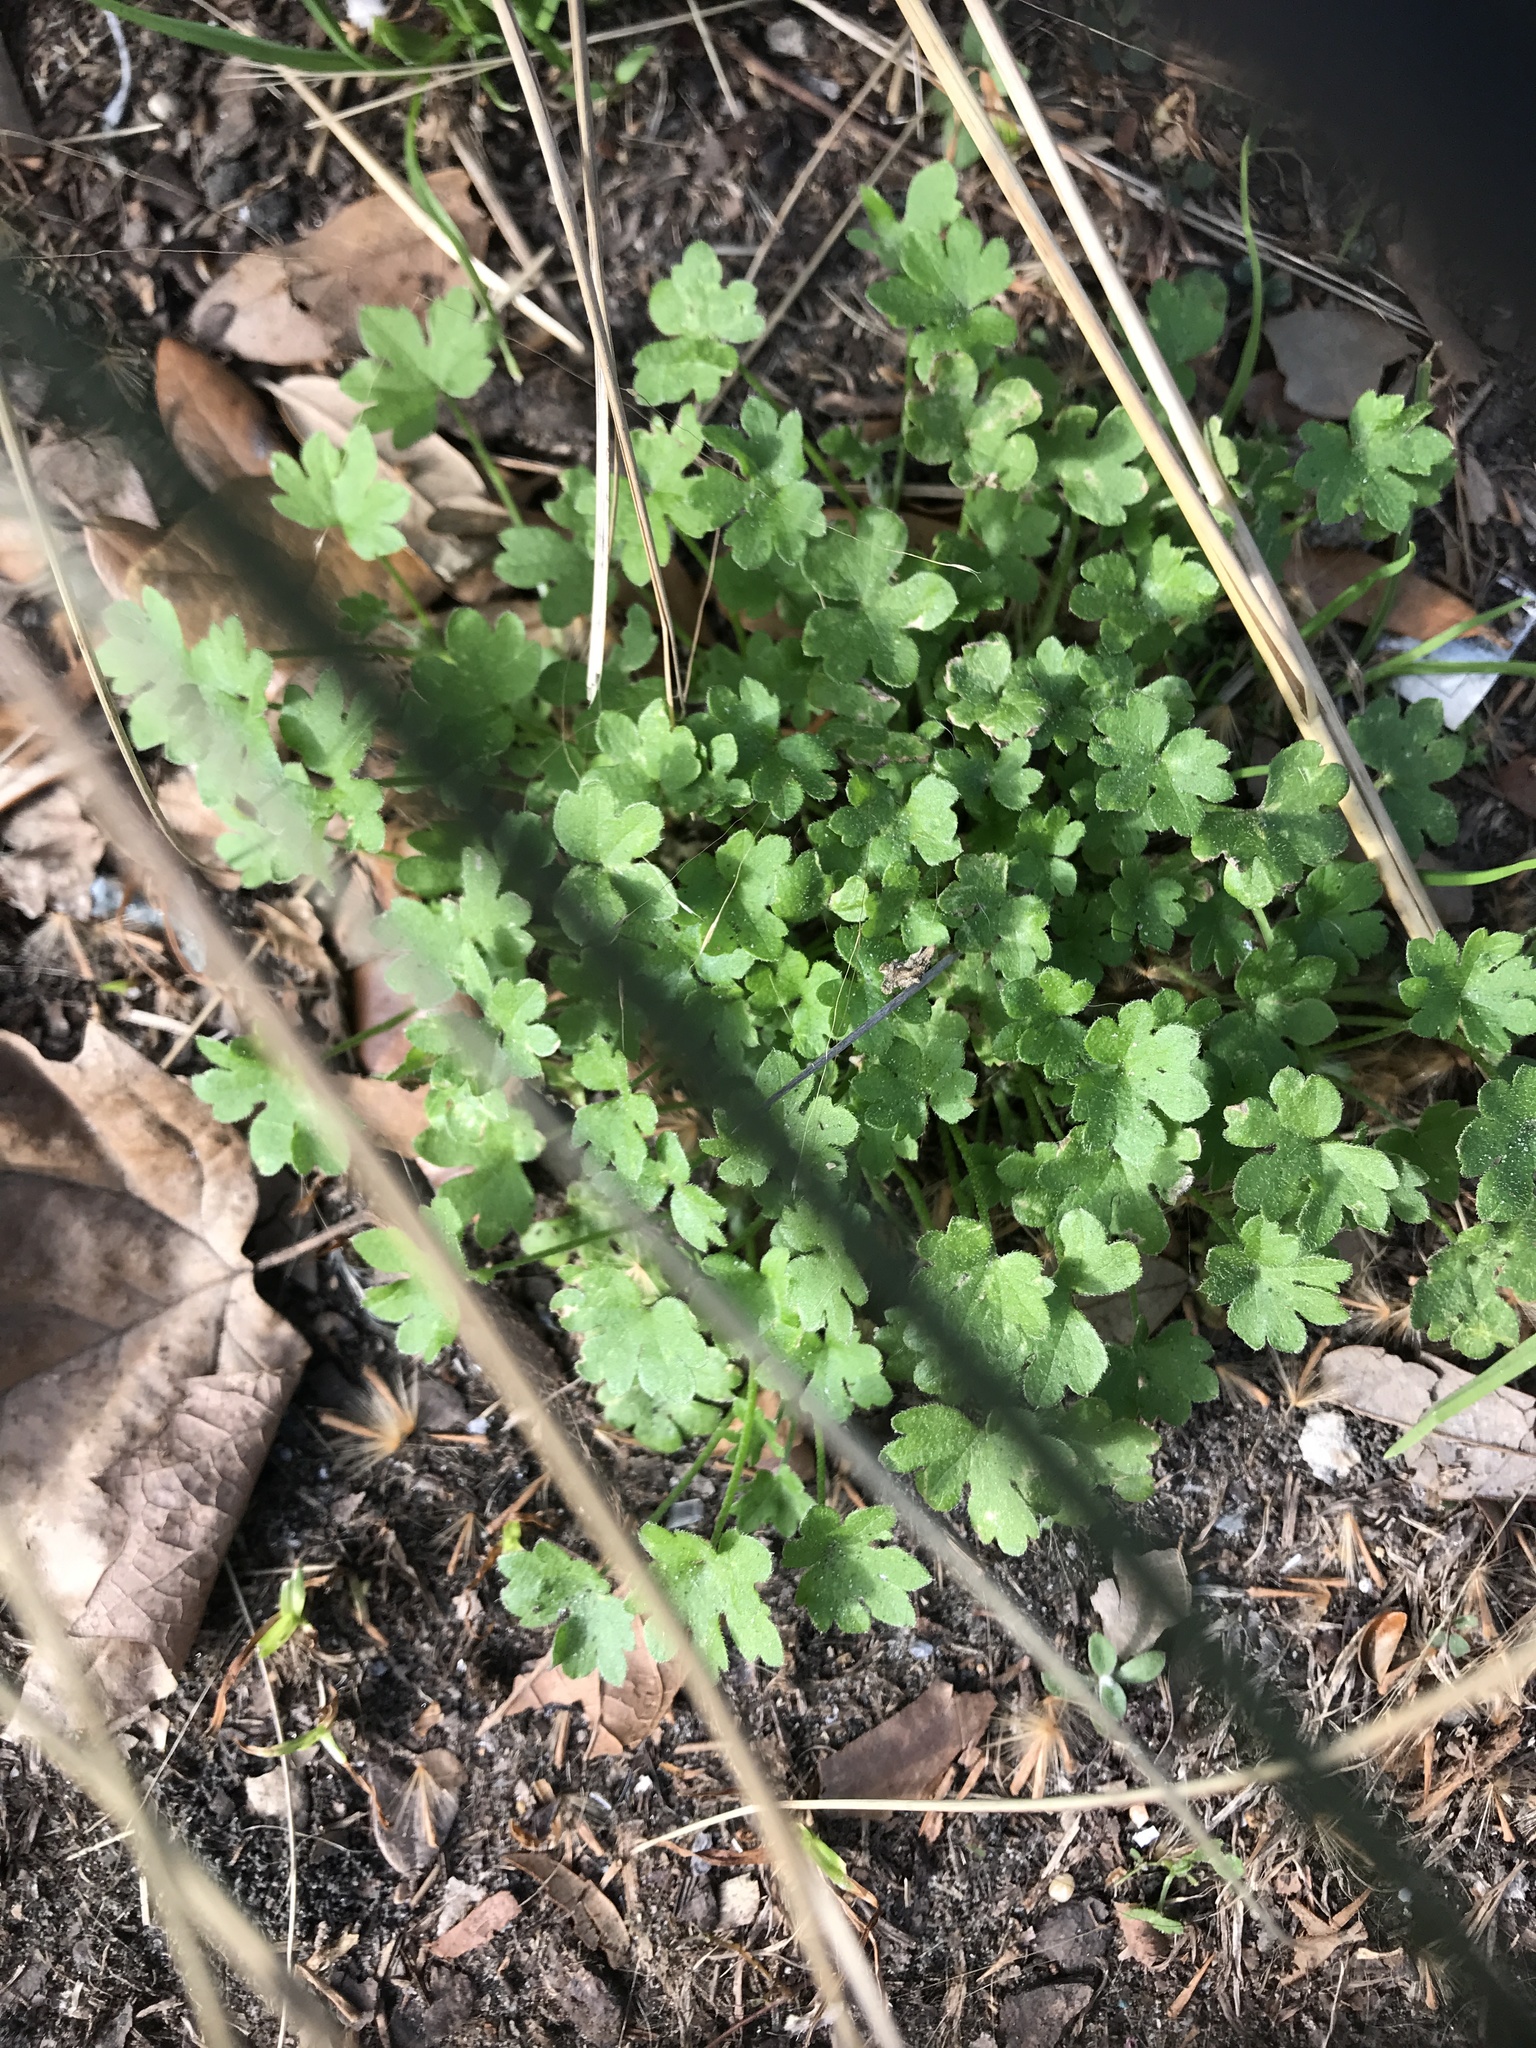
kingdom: Plantae
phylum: Tracheophyta
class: Magnoliopsida
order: Apiales
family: Apiaceae
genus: Bowlesia
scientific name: Bowlesia incana
